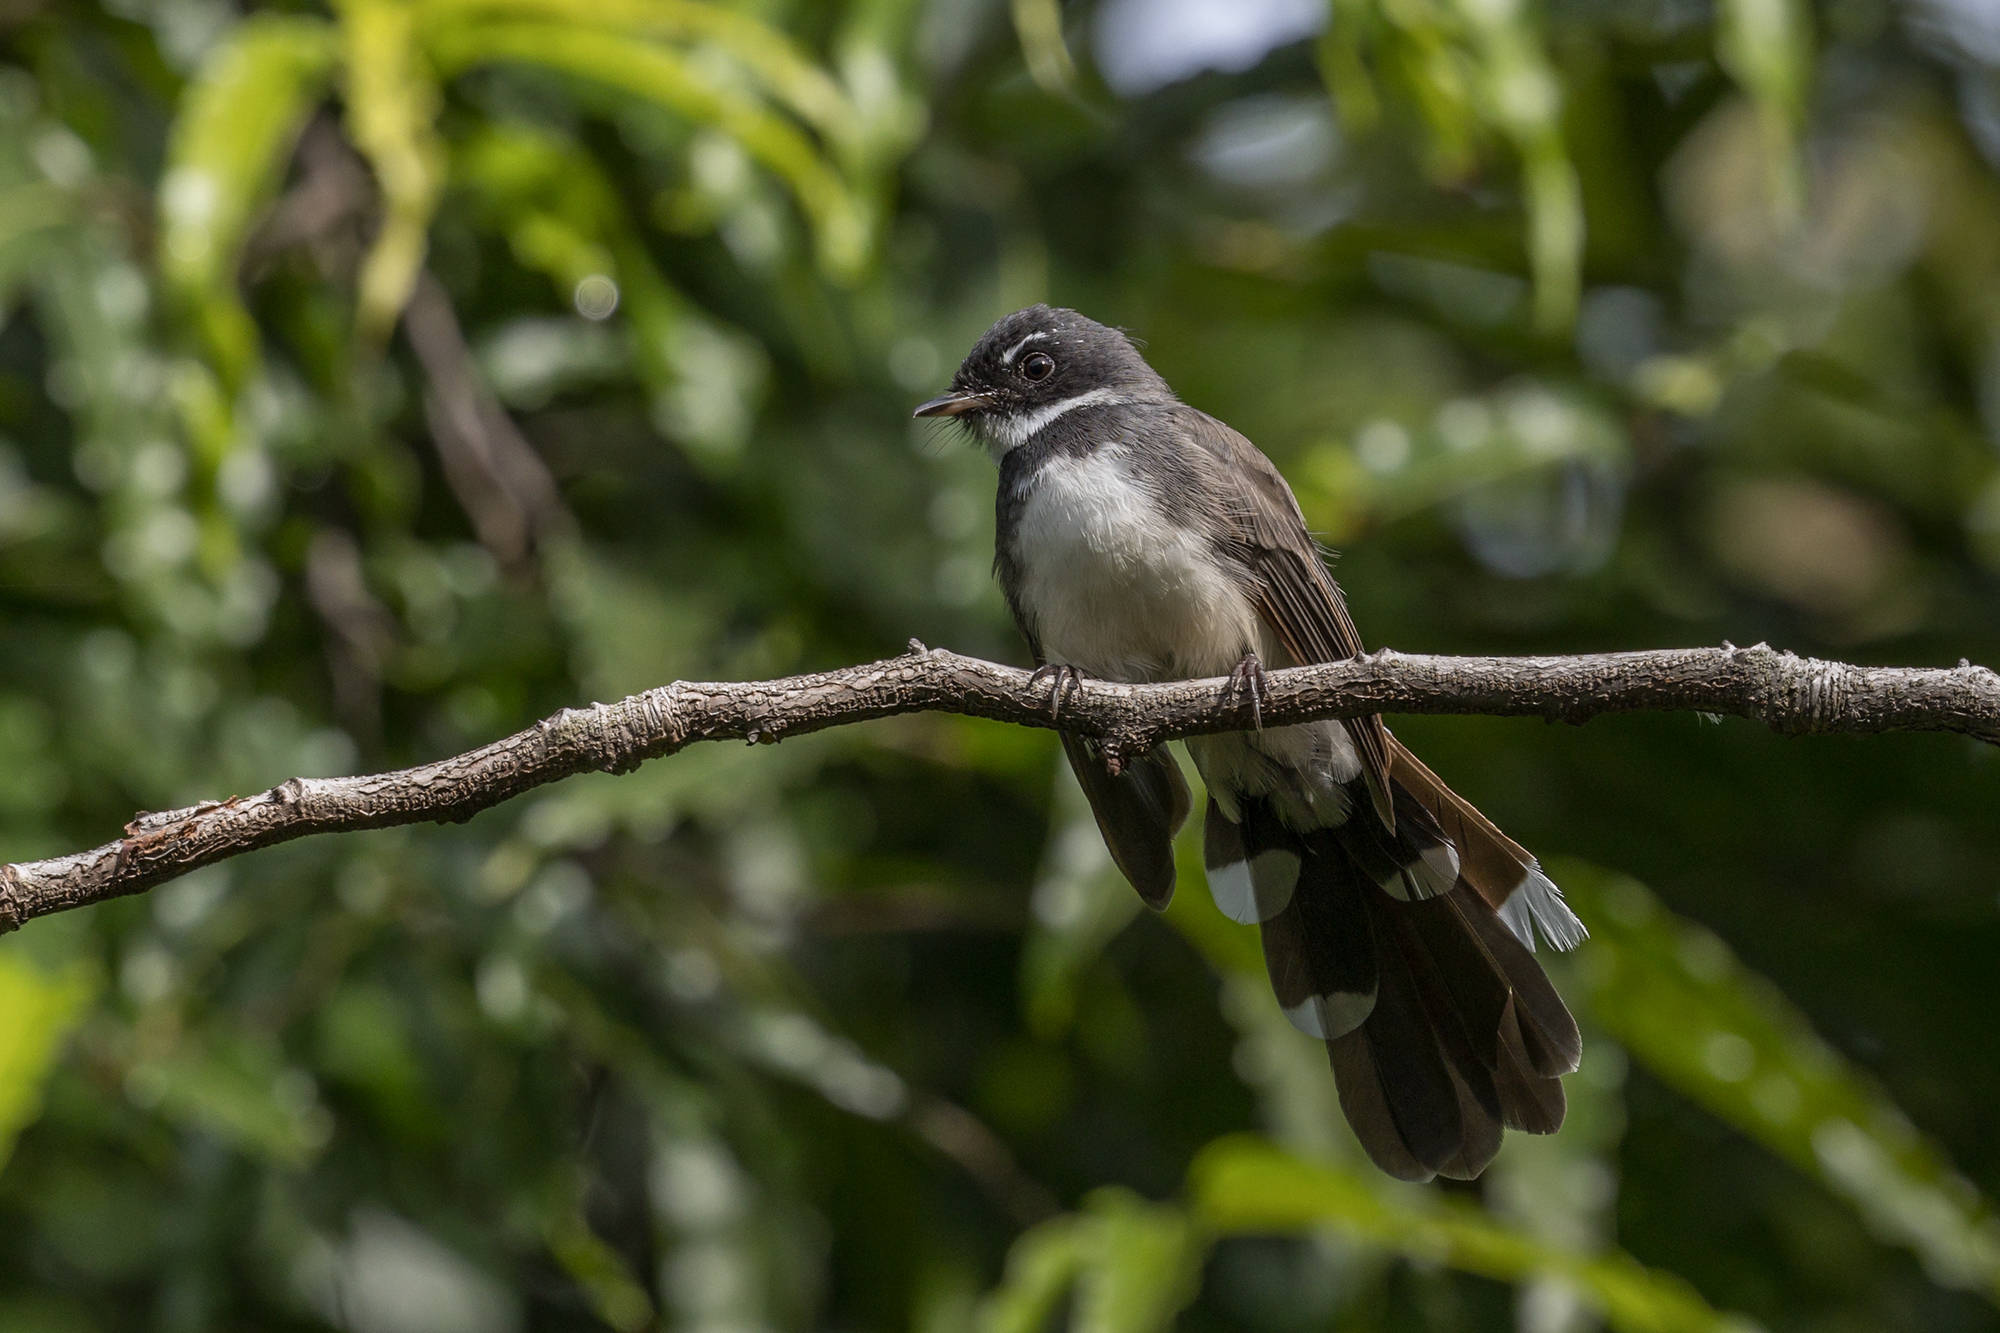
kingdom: Animalia
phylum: Chordata
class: Aves
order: Passeriformes
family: Rhipiduridae
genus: Rhipidura
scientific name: Rhipidura javanica
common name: Pied fantail
